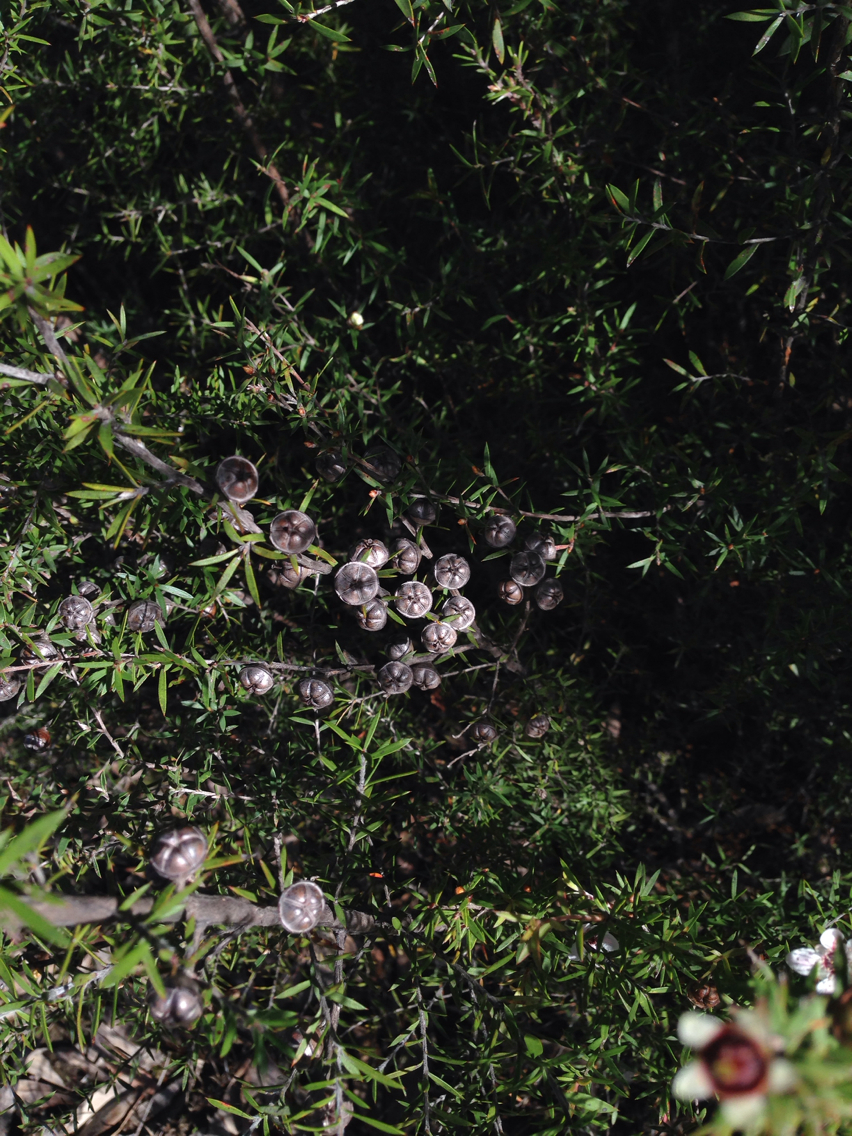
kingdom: Plantae
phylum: Tracheophyta
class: Magnoliopsida
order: Myrtales
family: Myrtaceae
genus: Leptospermum
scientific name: Leptospermum scoparium
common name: Broom tea-tree
